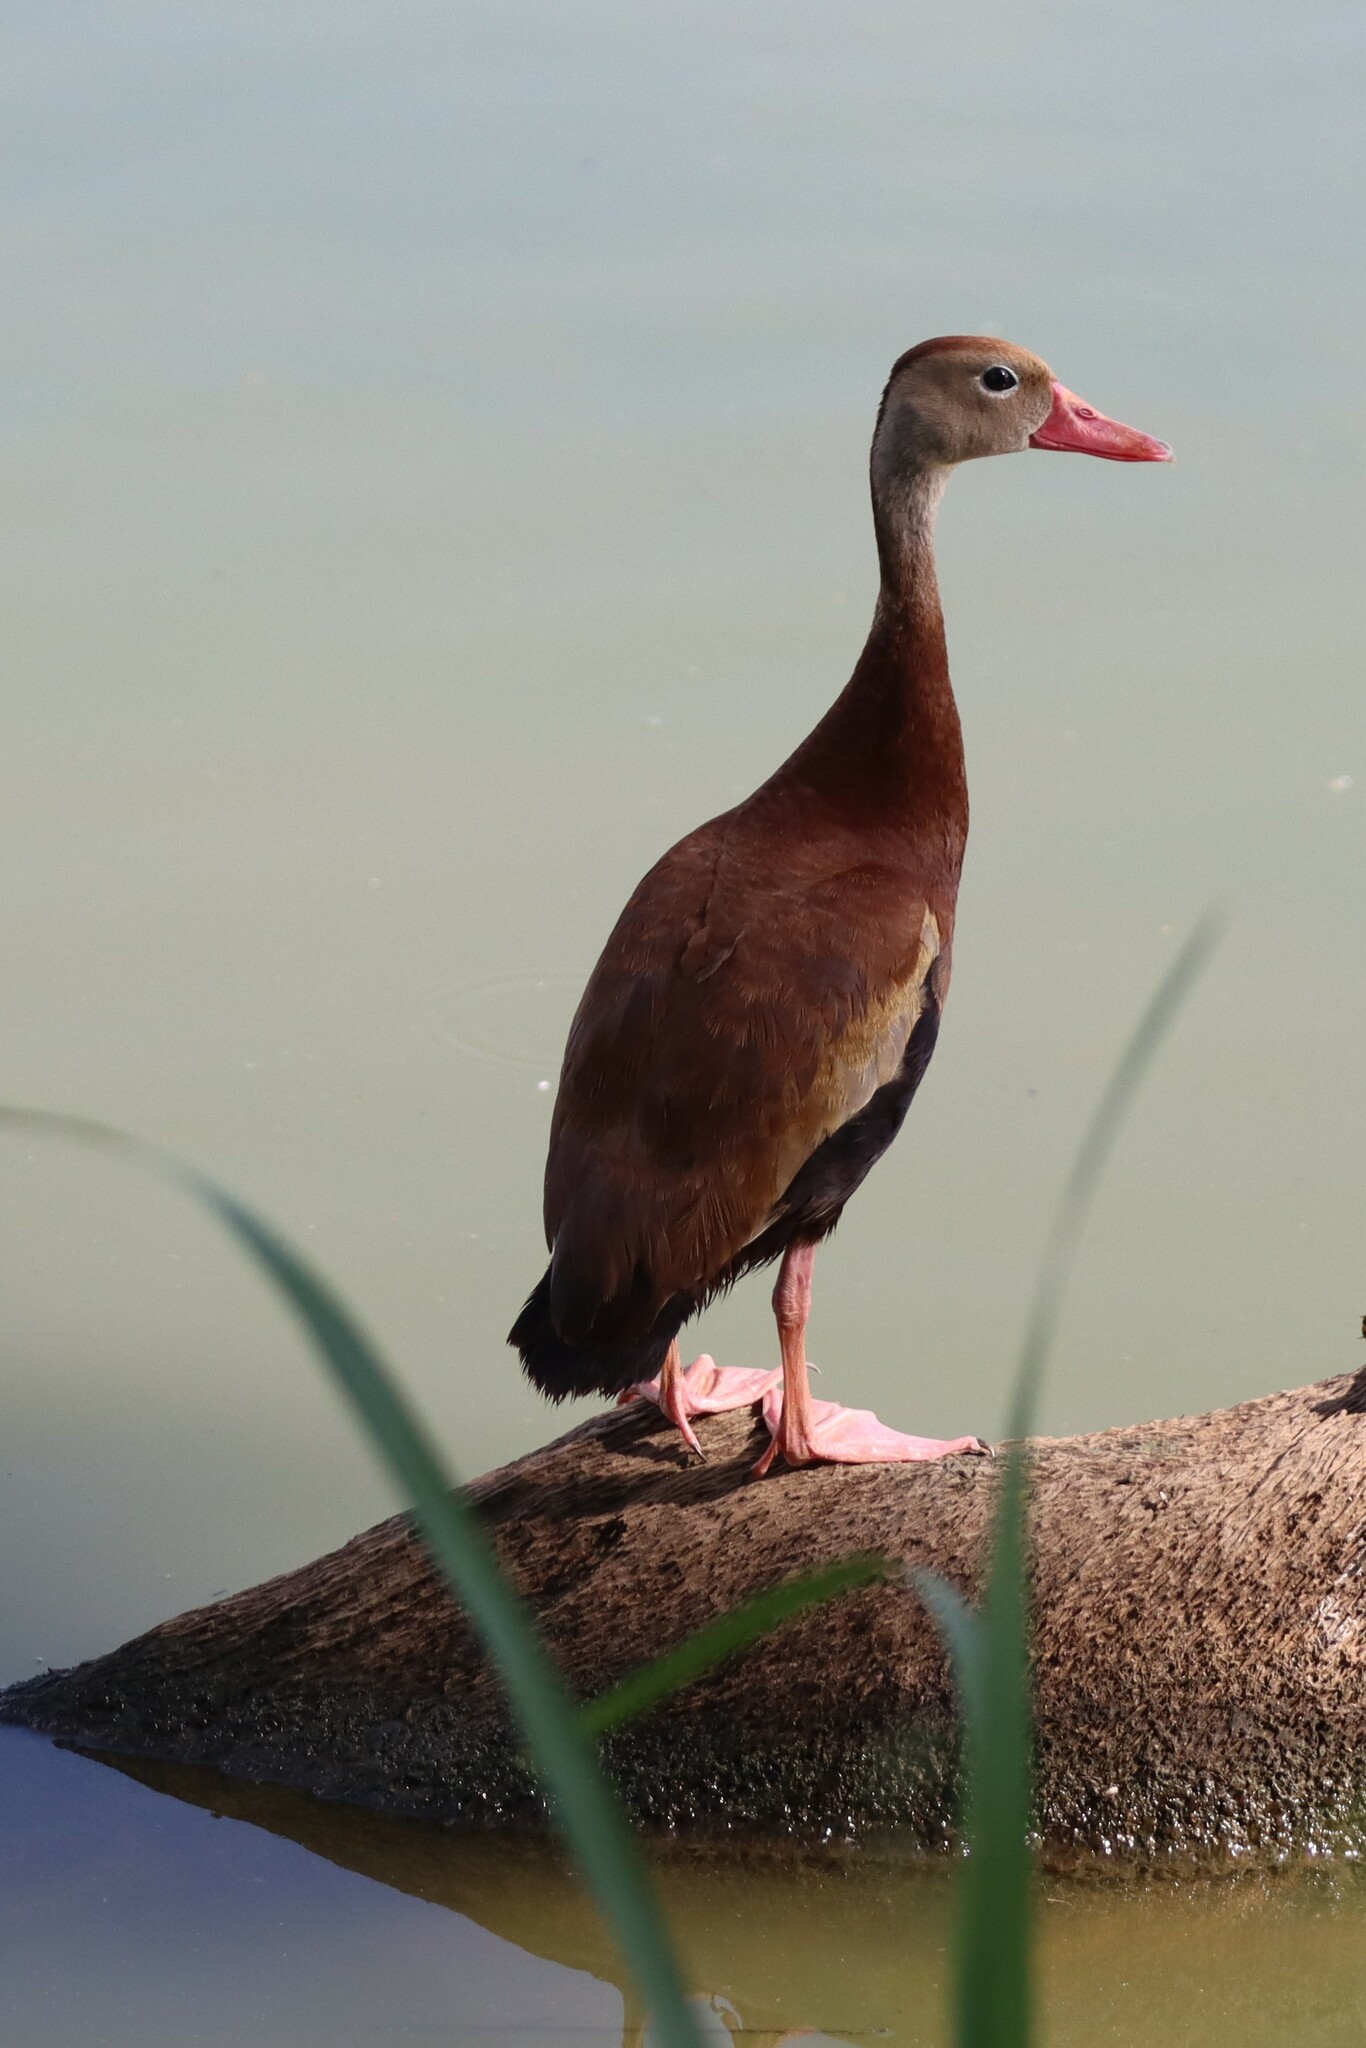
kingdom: Animalia
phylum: Chordata
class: Aves
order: Anseriformes
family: Anatidae
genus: Dendrocygna
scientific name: Dendrocygna autumnalis
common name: Black-bellied whistling duck
